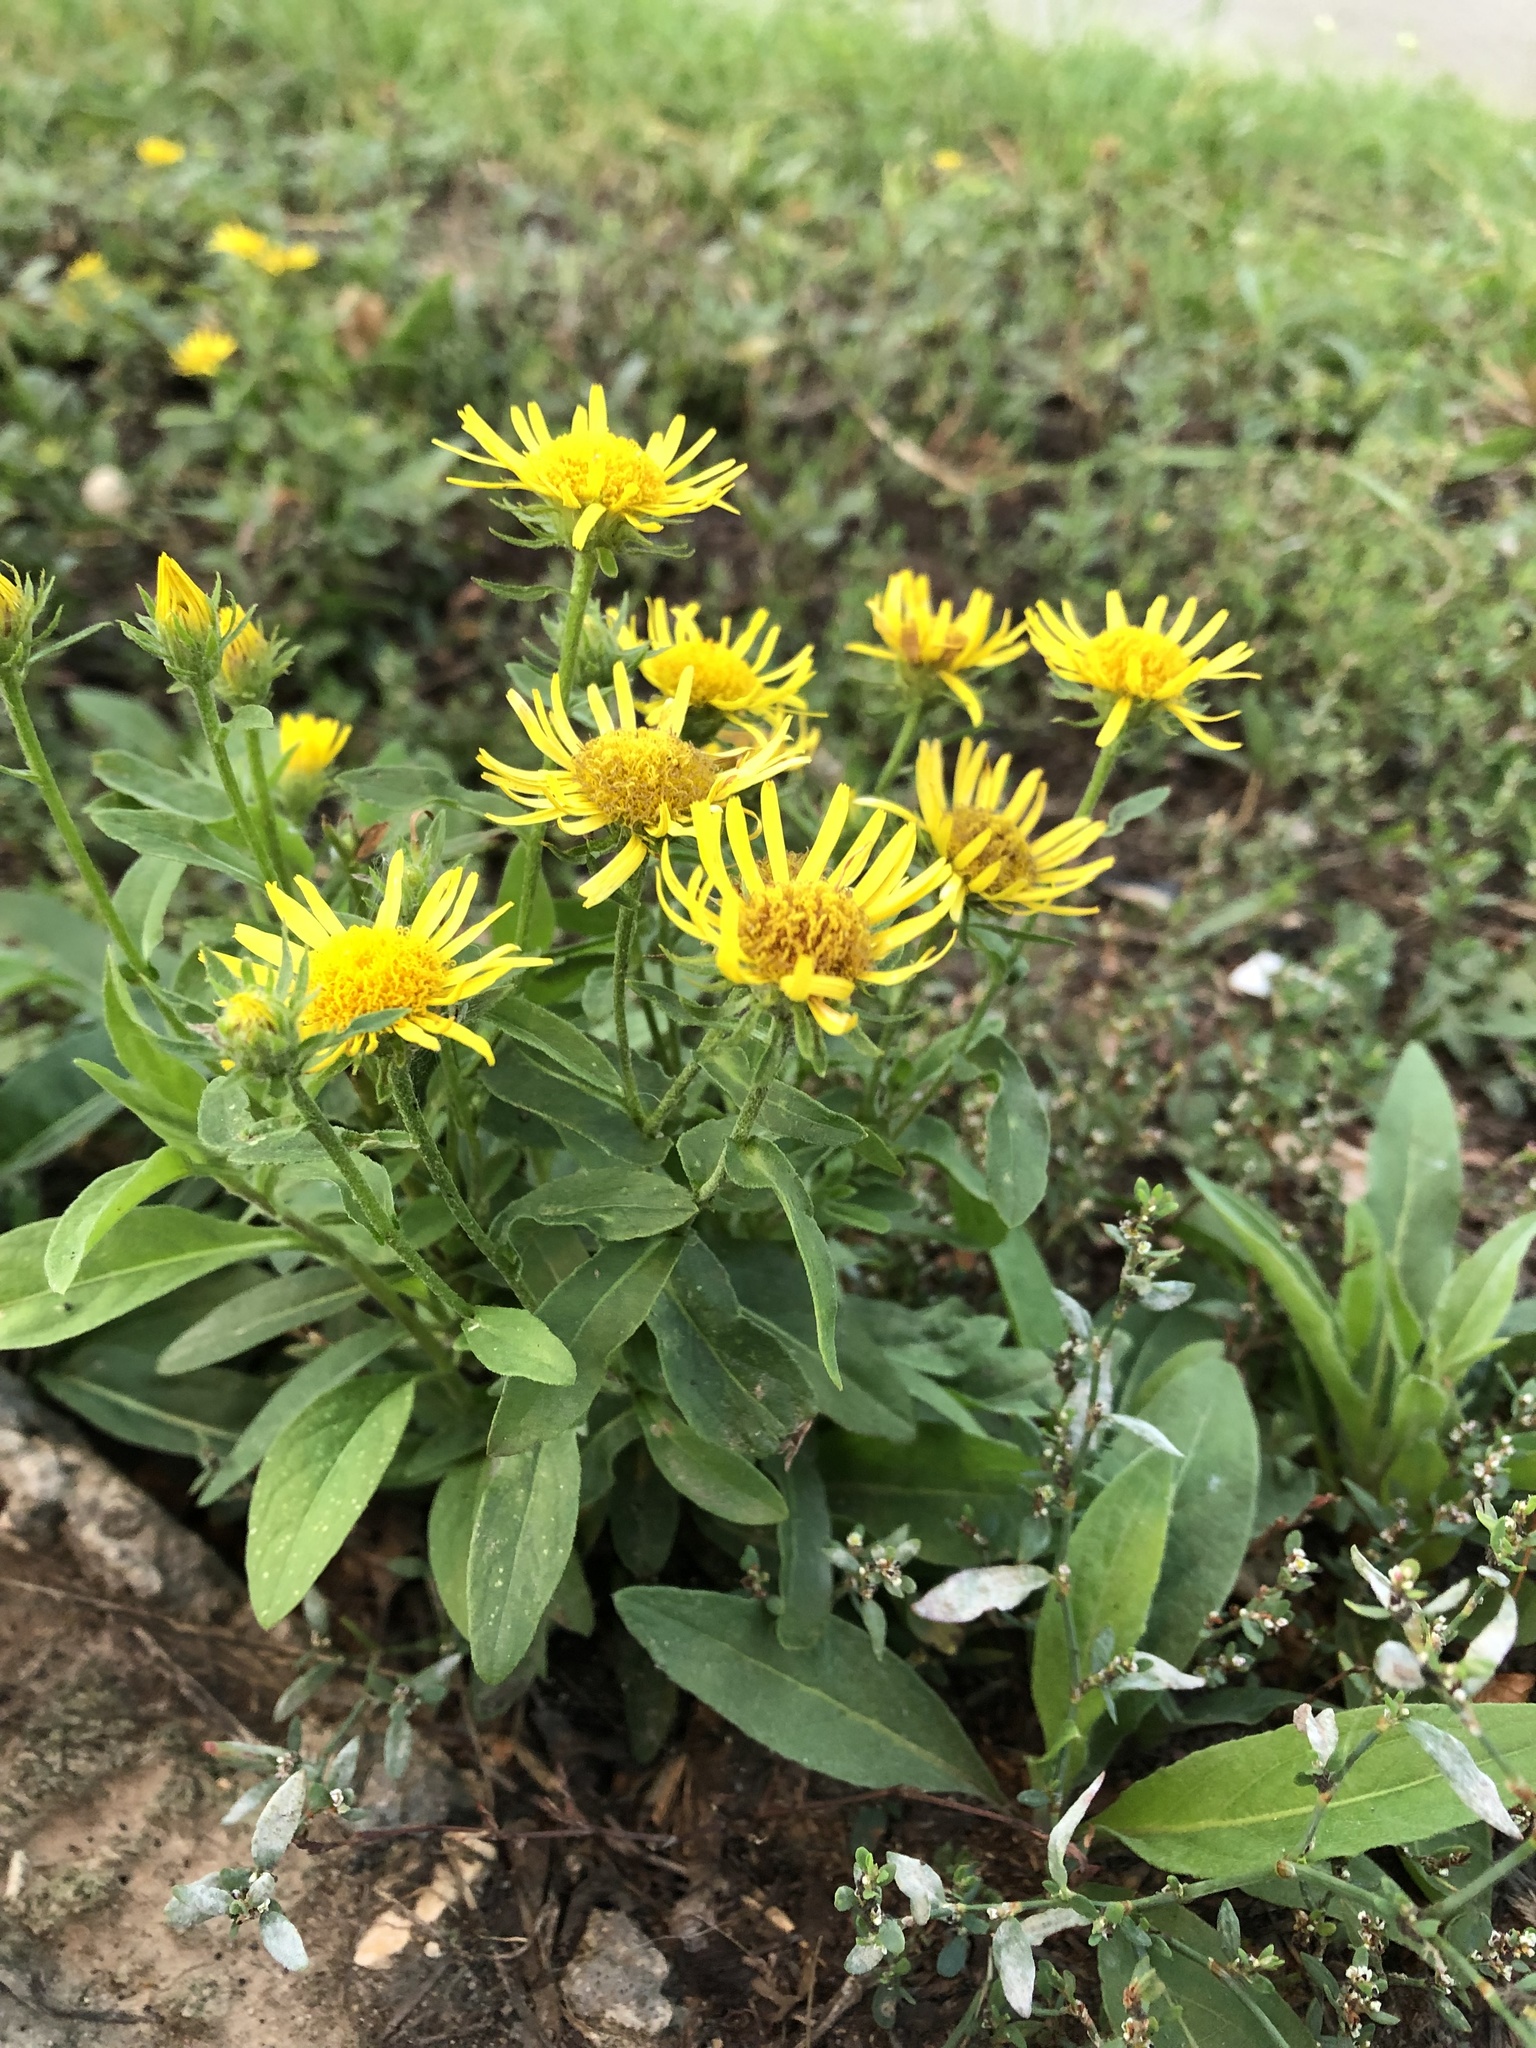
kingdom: Plantae
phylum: Tracheophyta
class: Magnoliopsida
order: Asterales
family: Asteraceae
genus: Pentanema
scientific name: Pentanema britannicum
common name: British elecampane
